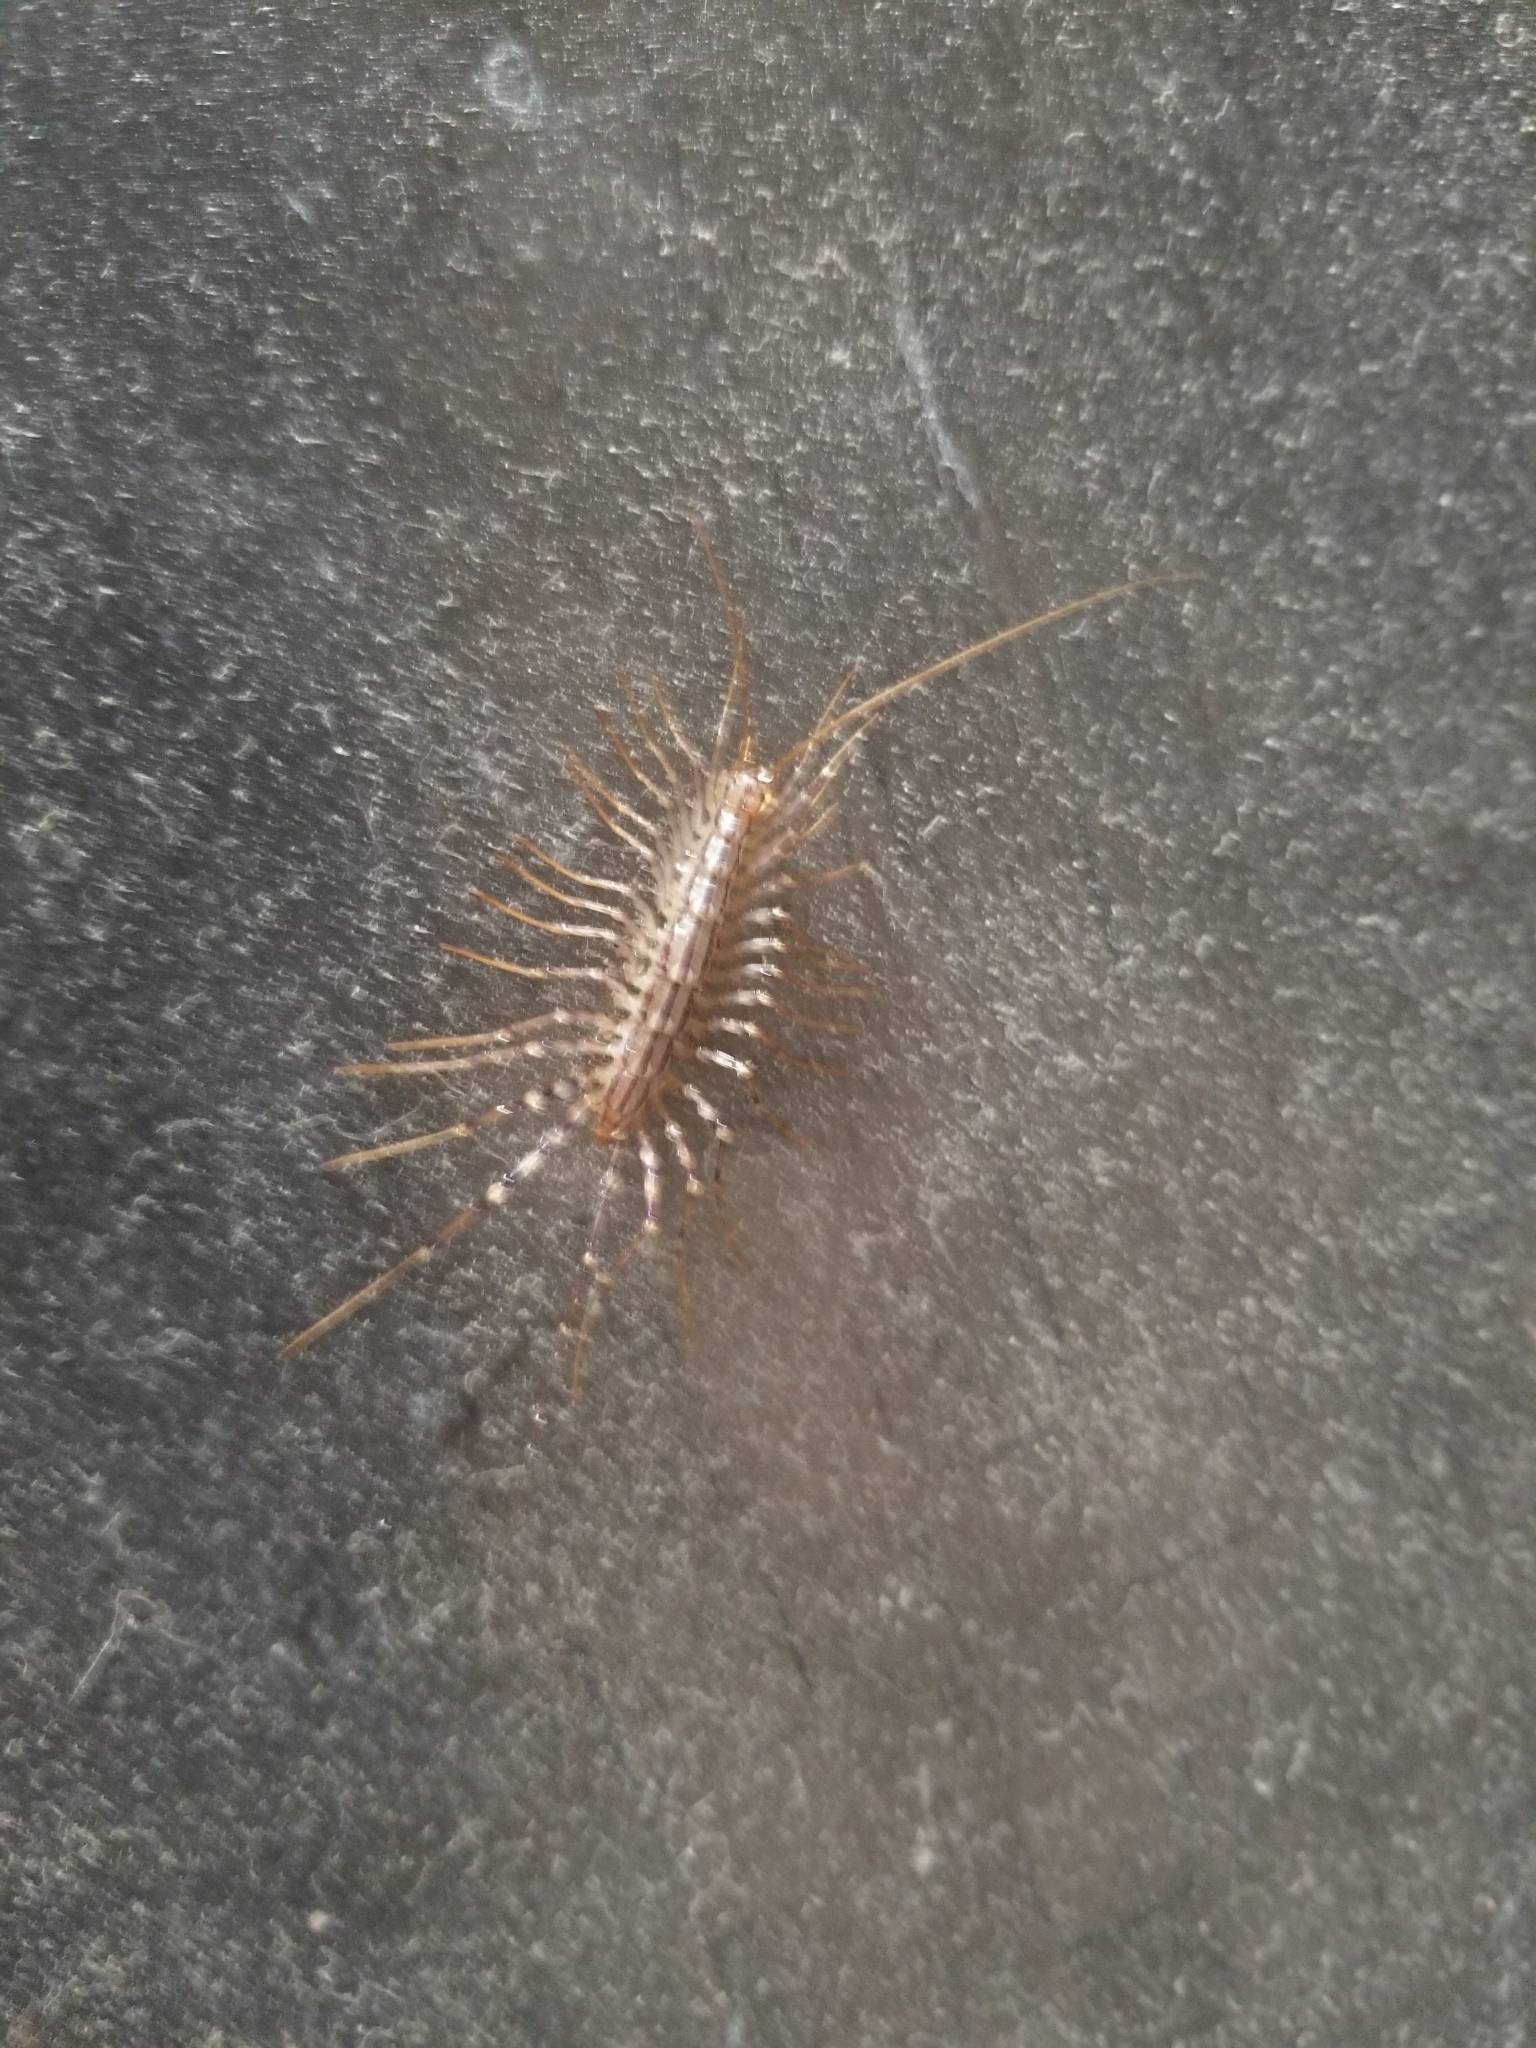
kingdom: Animalia
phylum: Arthropoda
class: Chilopoda
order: Scutigeromorpha
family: Scutigeridae
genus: Scutigera
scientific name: Scutigera coleoptrata
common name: House centipede
